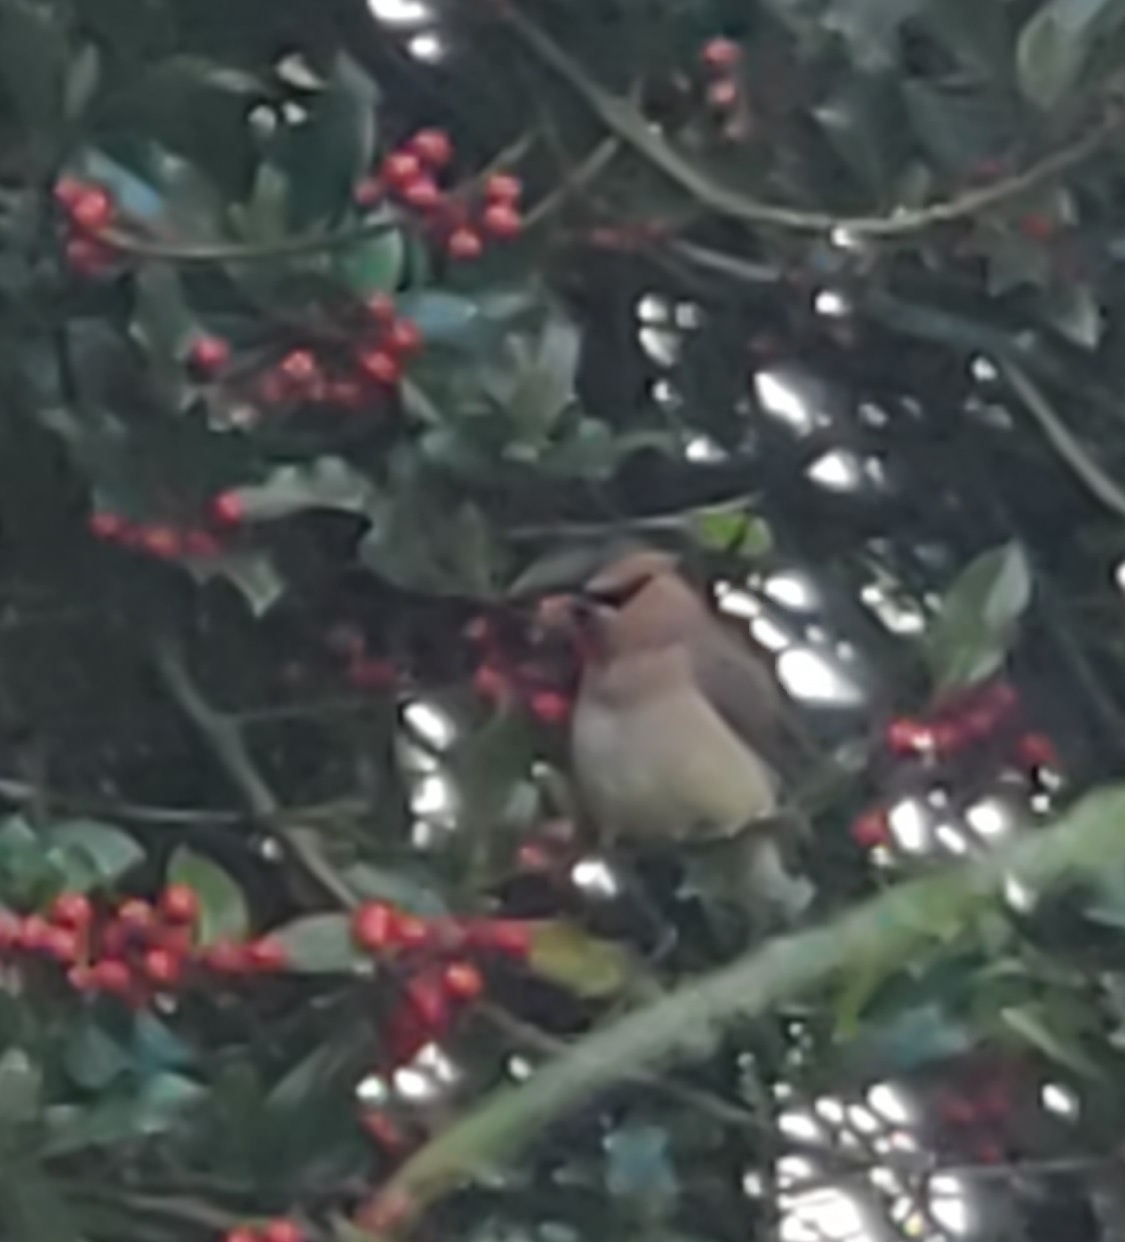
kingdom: Animalia
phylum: Chordata
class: Aves
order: Passeriformes
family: Bombycillidae
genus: Bombycilla
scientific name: Bombycilla cedrorum
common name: Cedar waxwing
